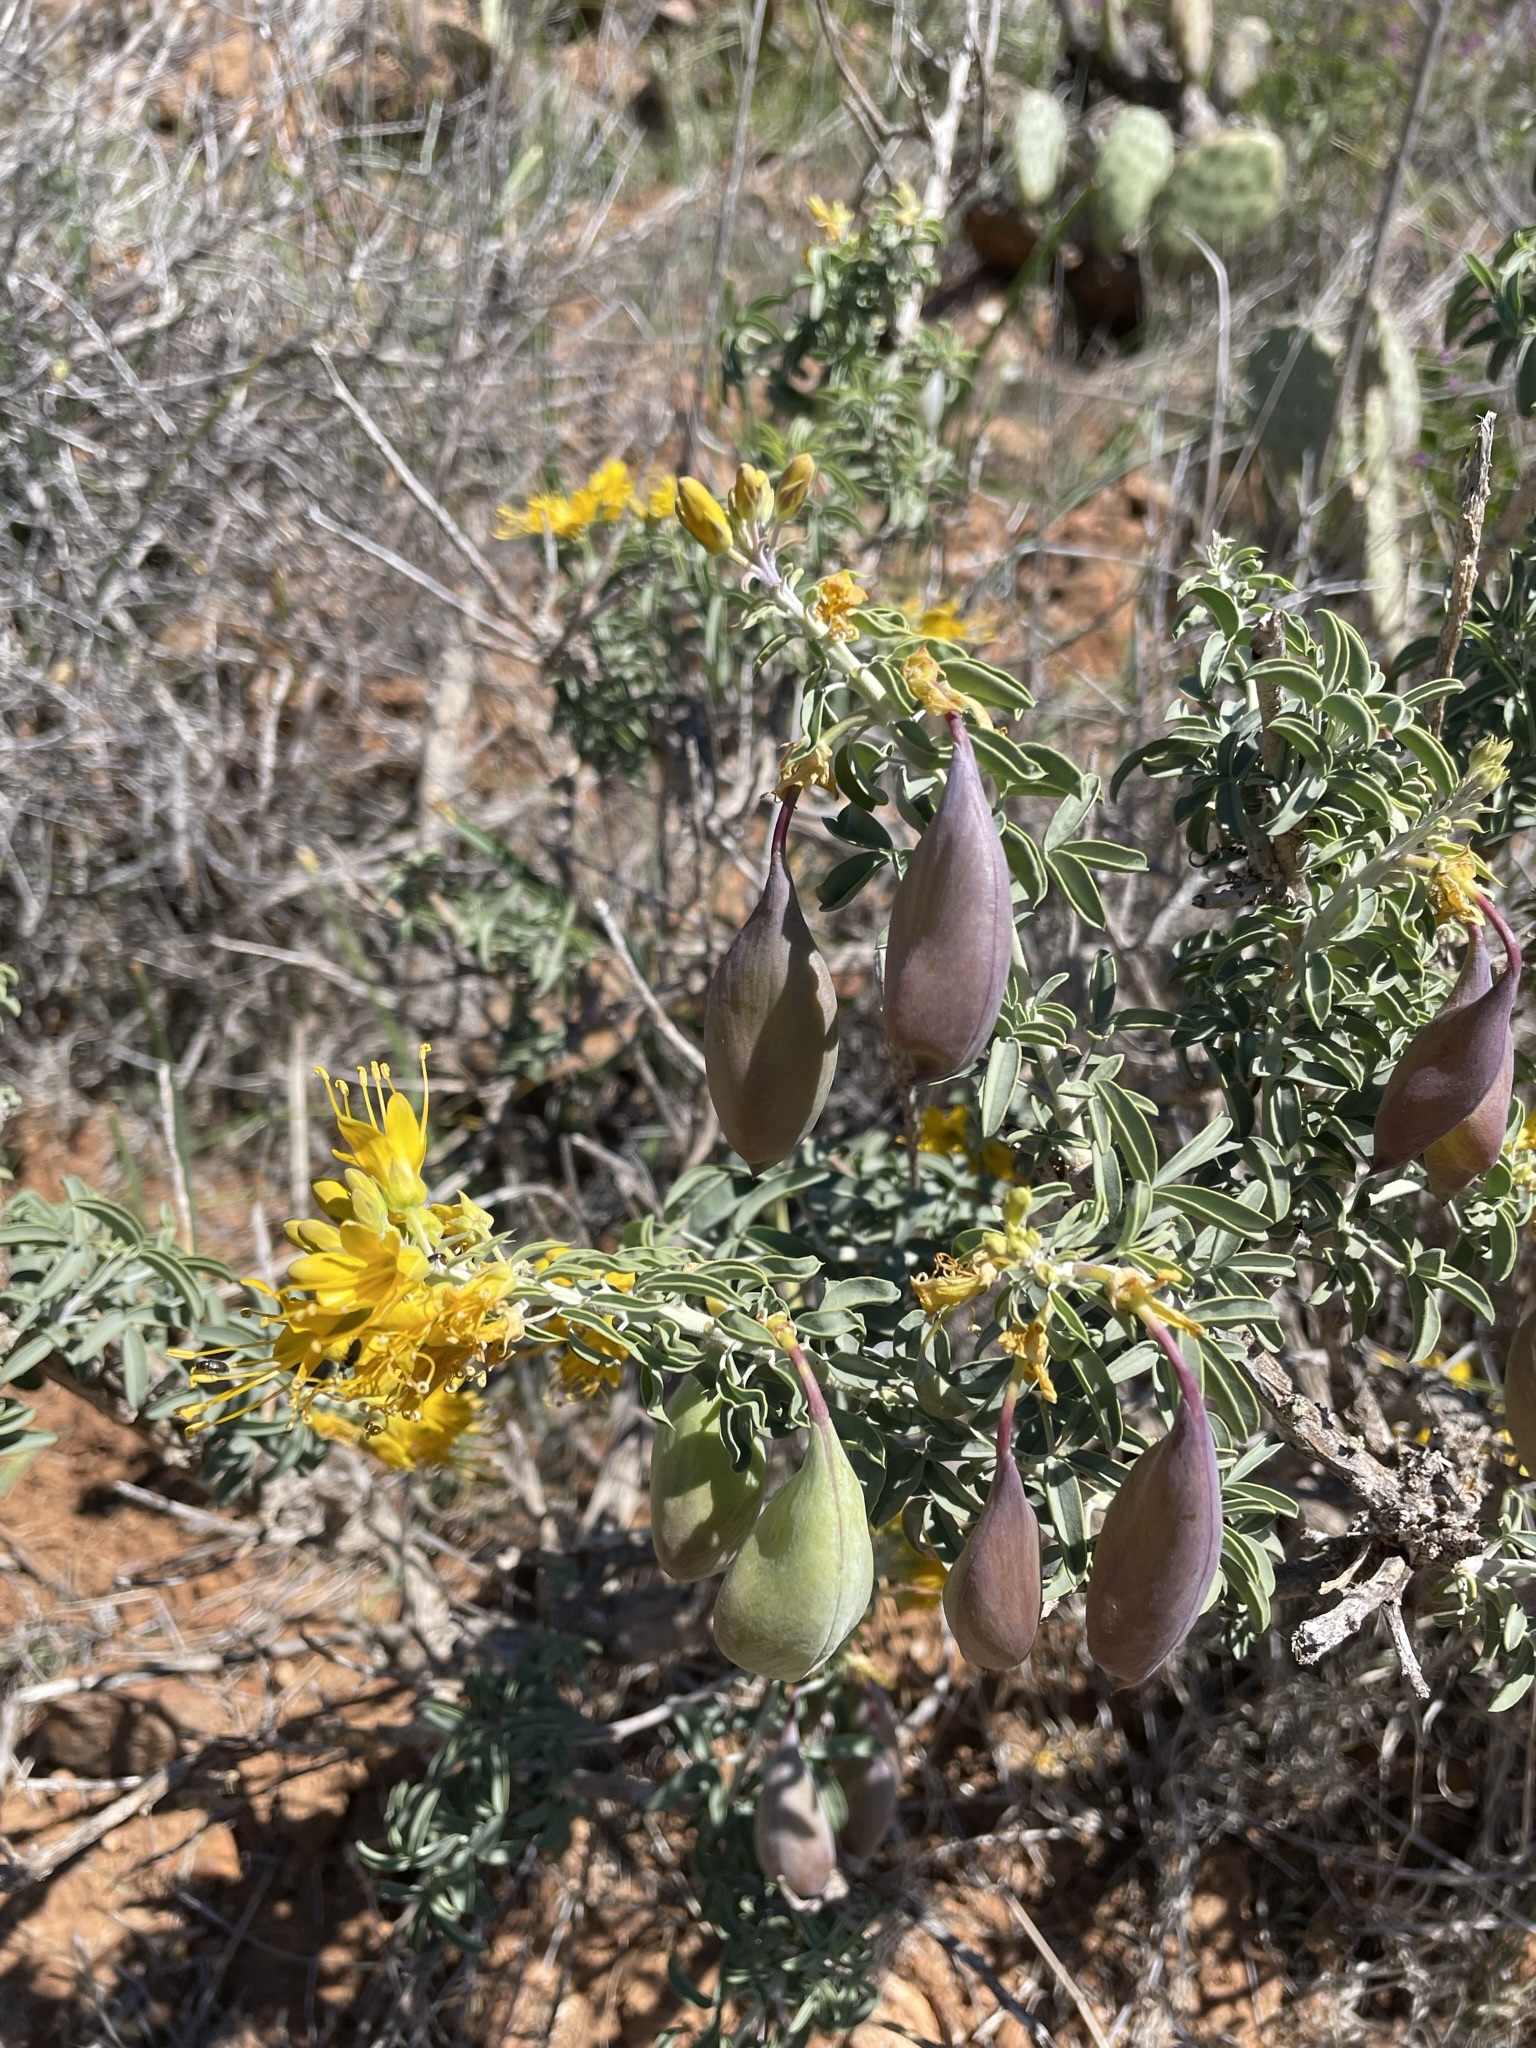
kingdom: Plantae
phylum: Tracheophyta
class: Magnoliopsida
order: Brassicales
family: Cleomaceae
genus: Cleomella
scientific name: Cleomella arborea
